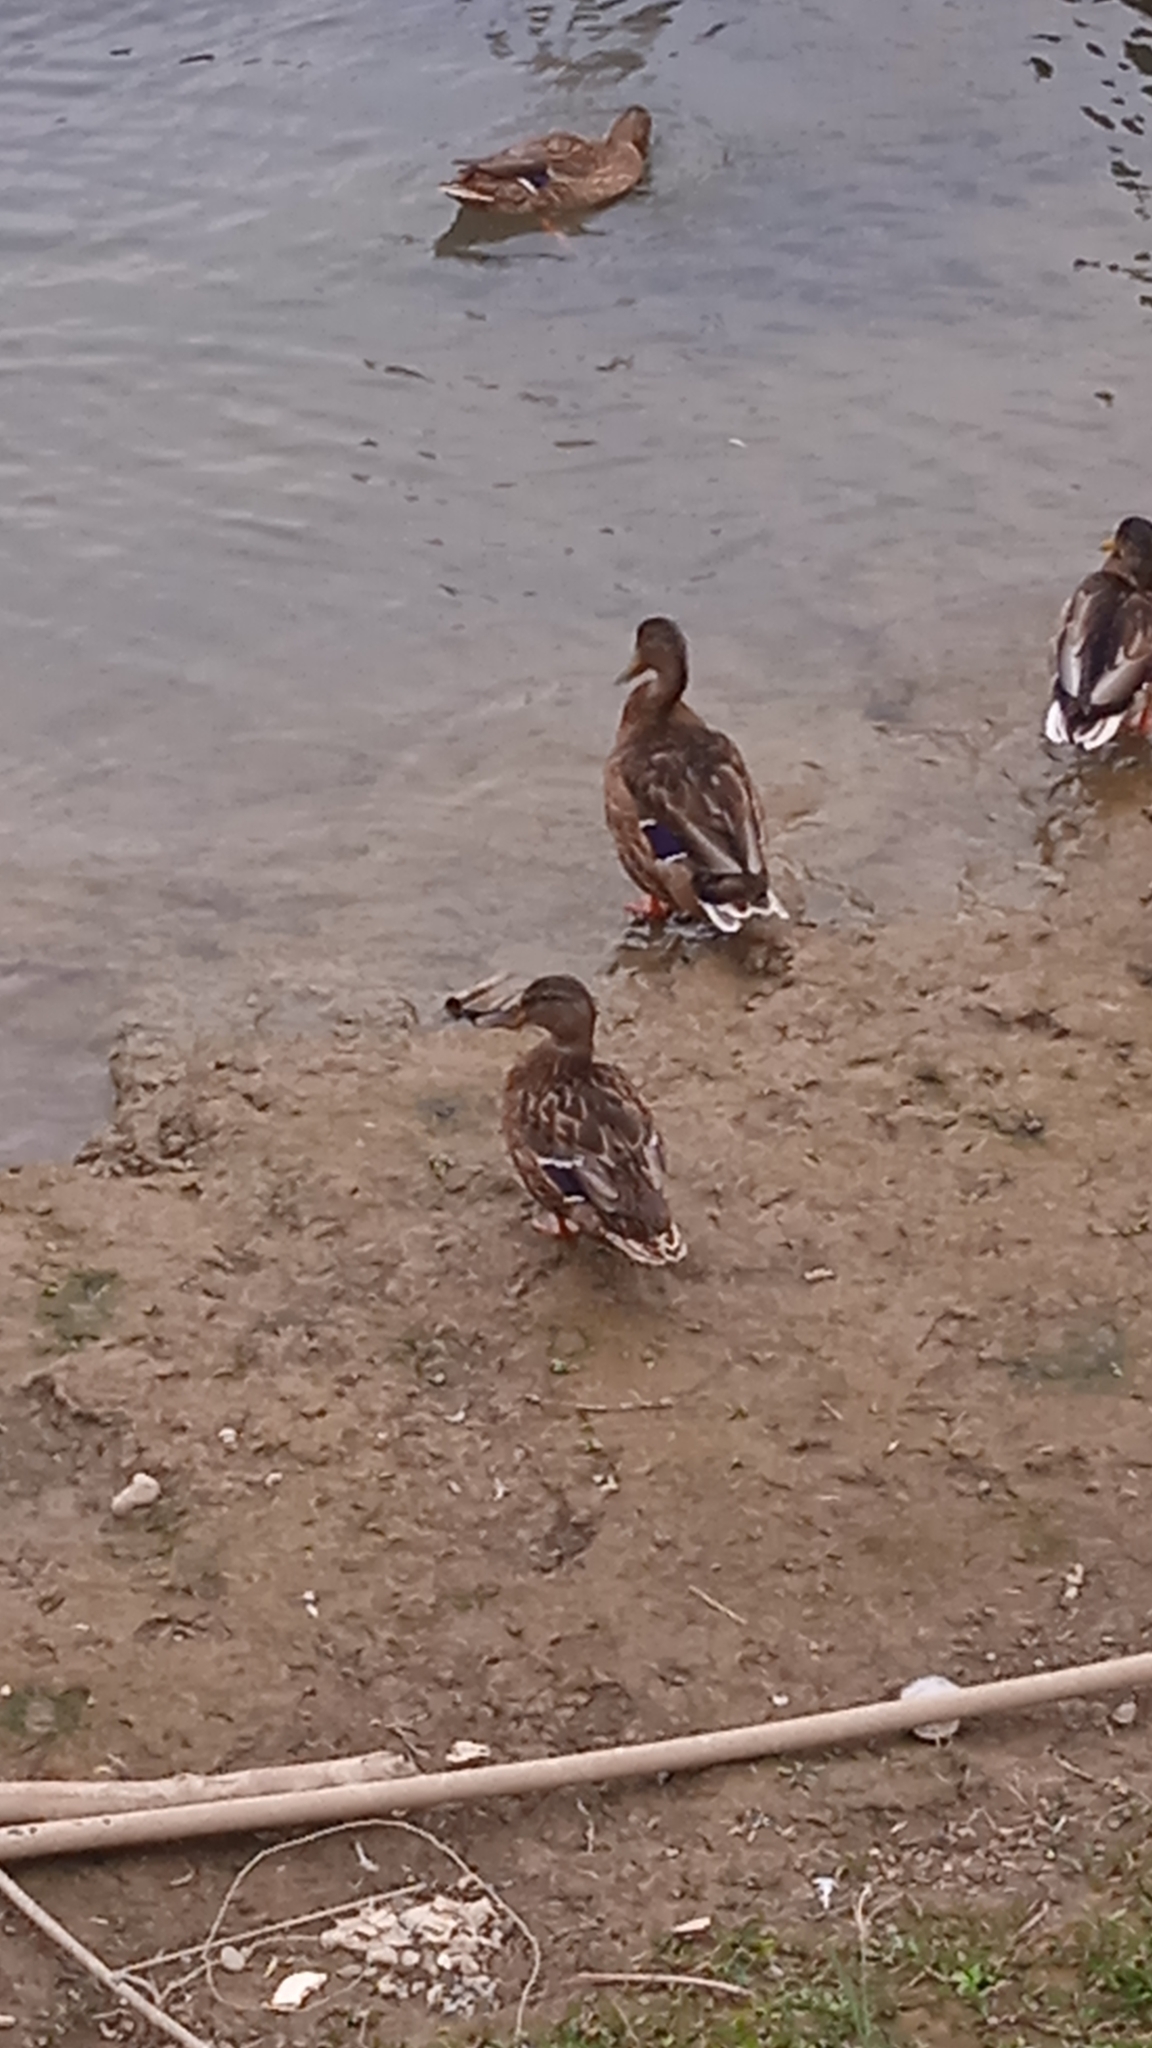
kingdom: Animalia
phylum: Chordata
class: Aves
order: Anseriformes
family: Anatidae
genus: Anas
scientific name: Anas platyrhynchos
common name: Mallard
